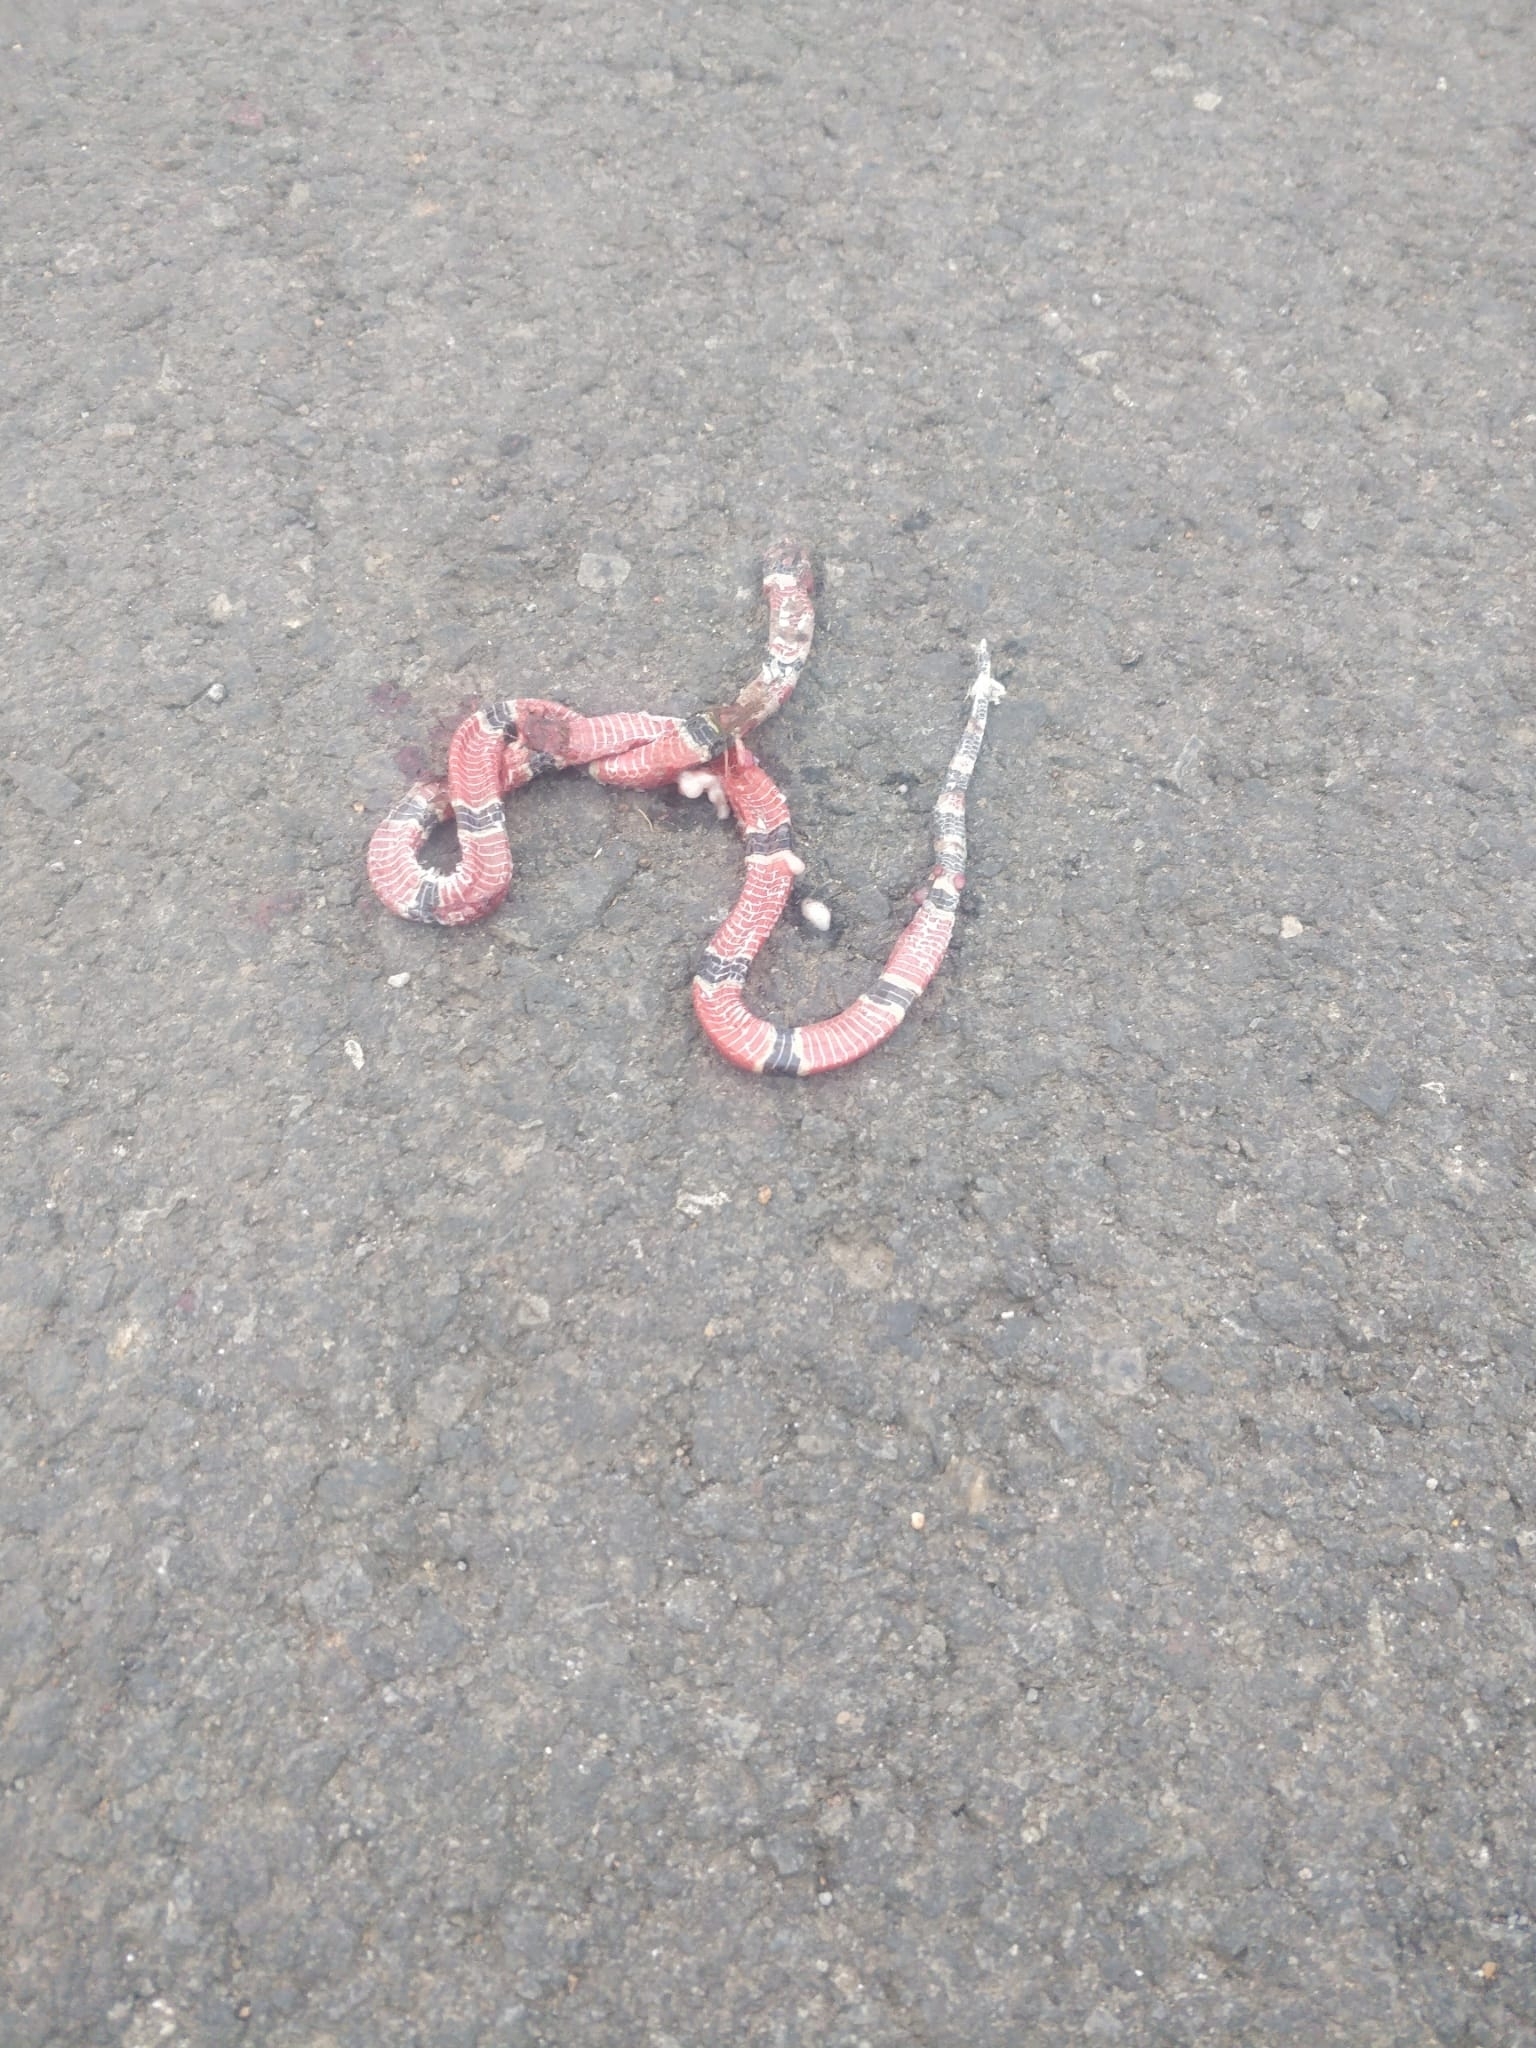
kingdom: Animalia
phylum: Chordata
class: Squamata
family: Elapidae
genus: Micrurus
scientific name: Micrurus nigrocinctus
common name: Babaspul [babaspul]
